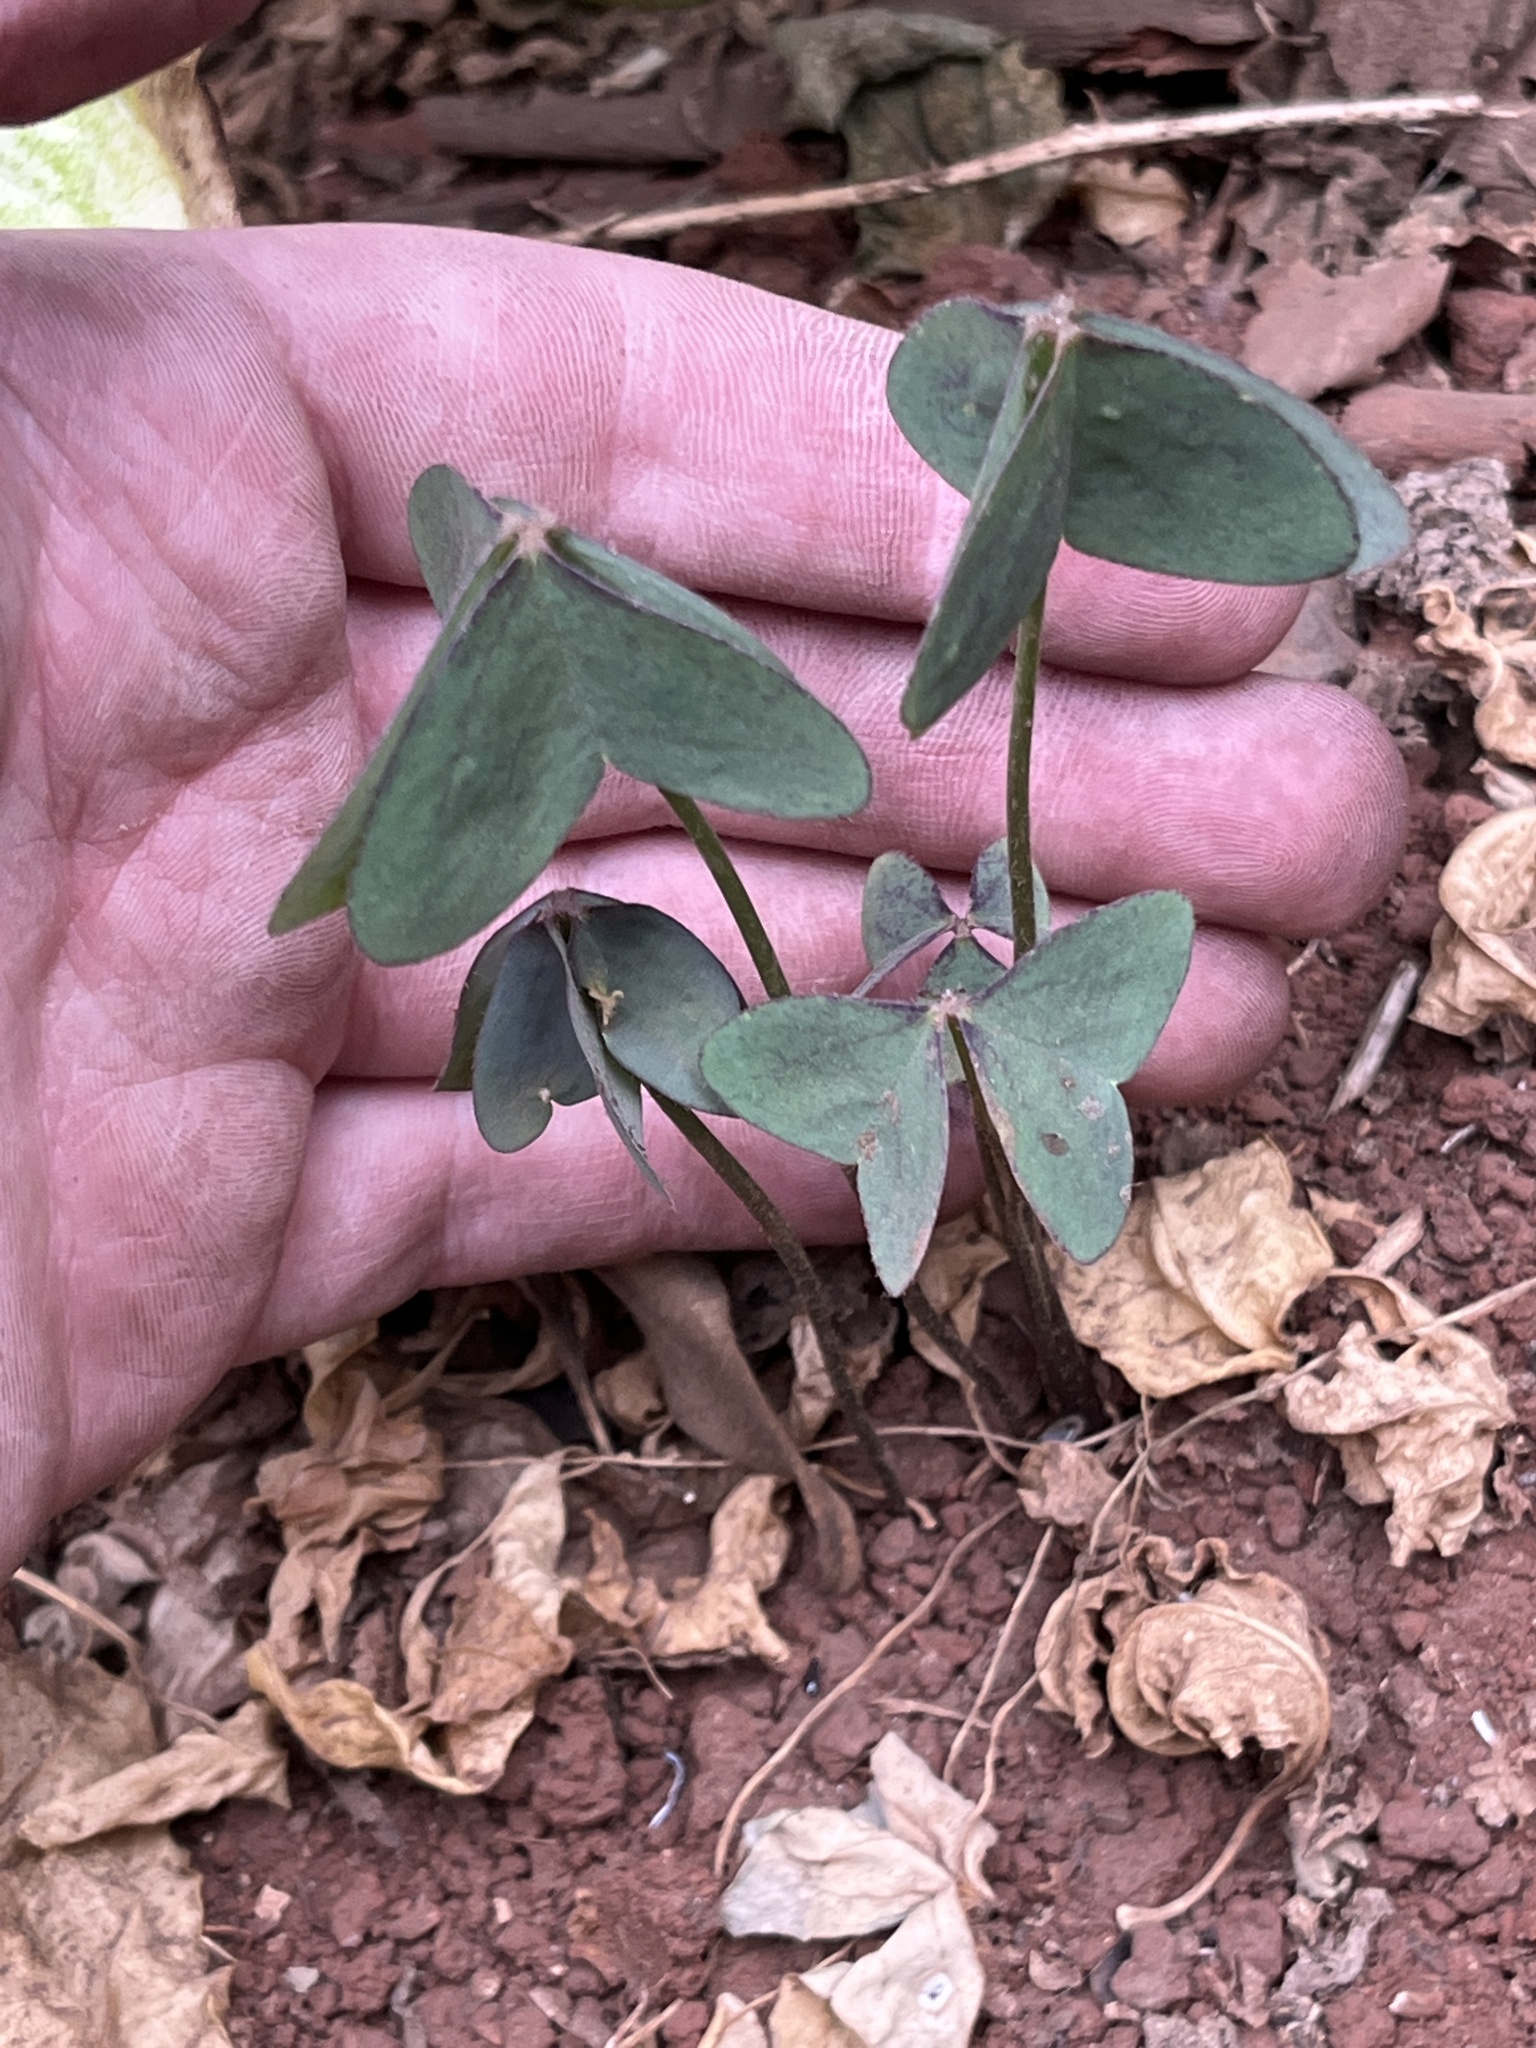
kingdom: Plantae
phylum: Tracheophyta
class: Magnoliopsida
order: Oxalidales
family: Oxalidaceae
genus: Oxalis
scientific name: Oxalis latifolia
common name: Garden pink-sorrel
